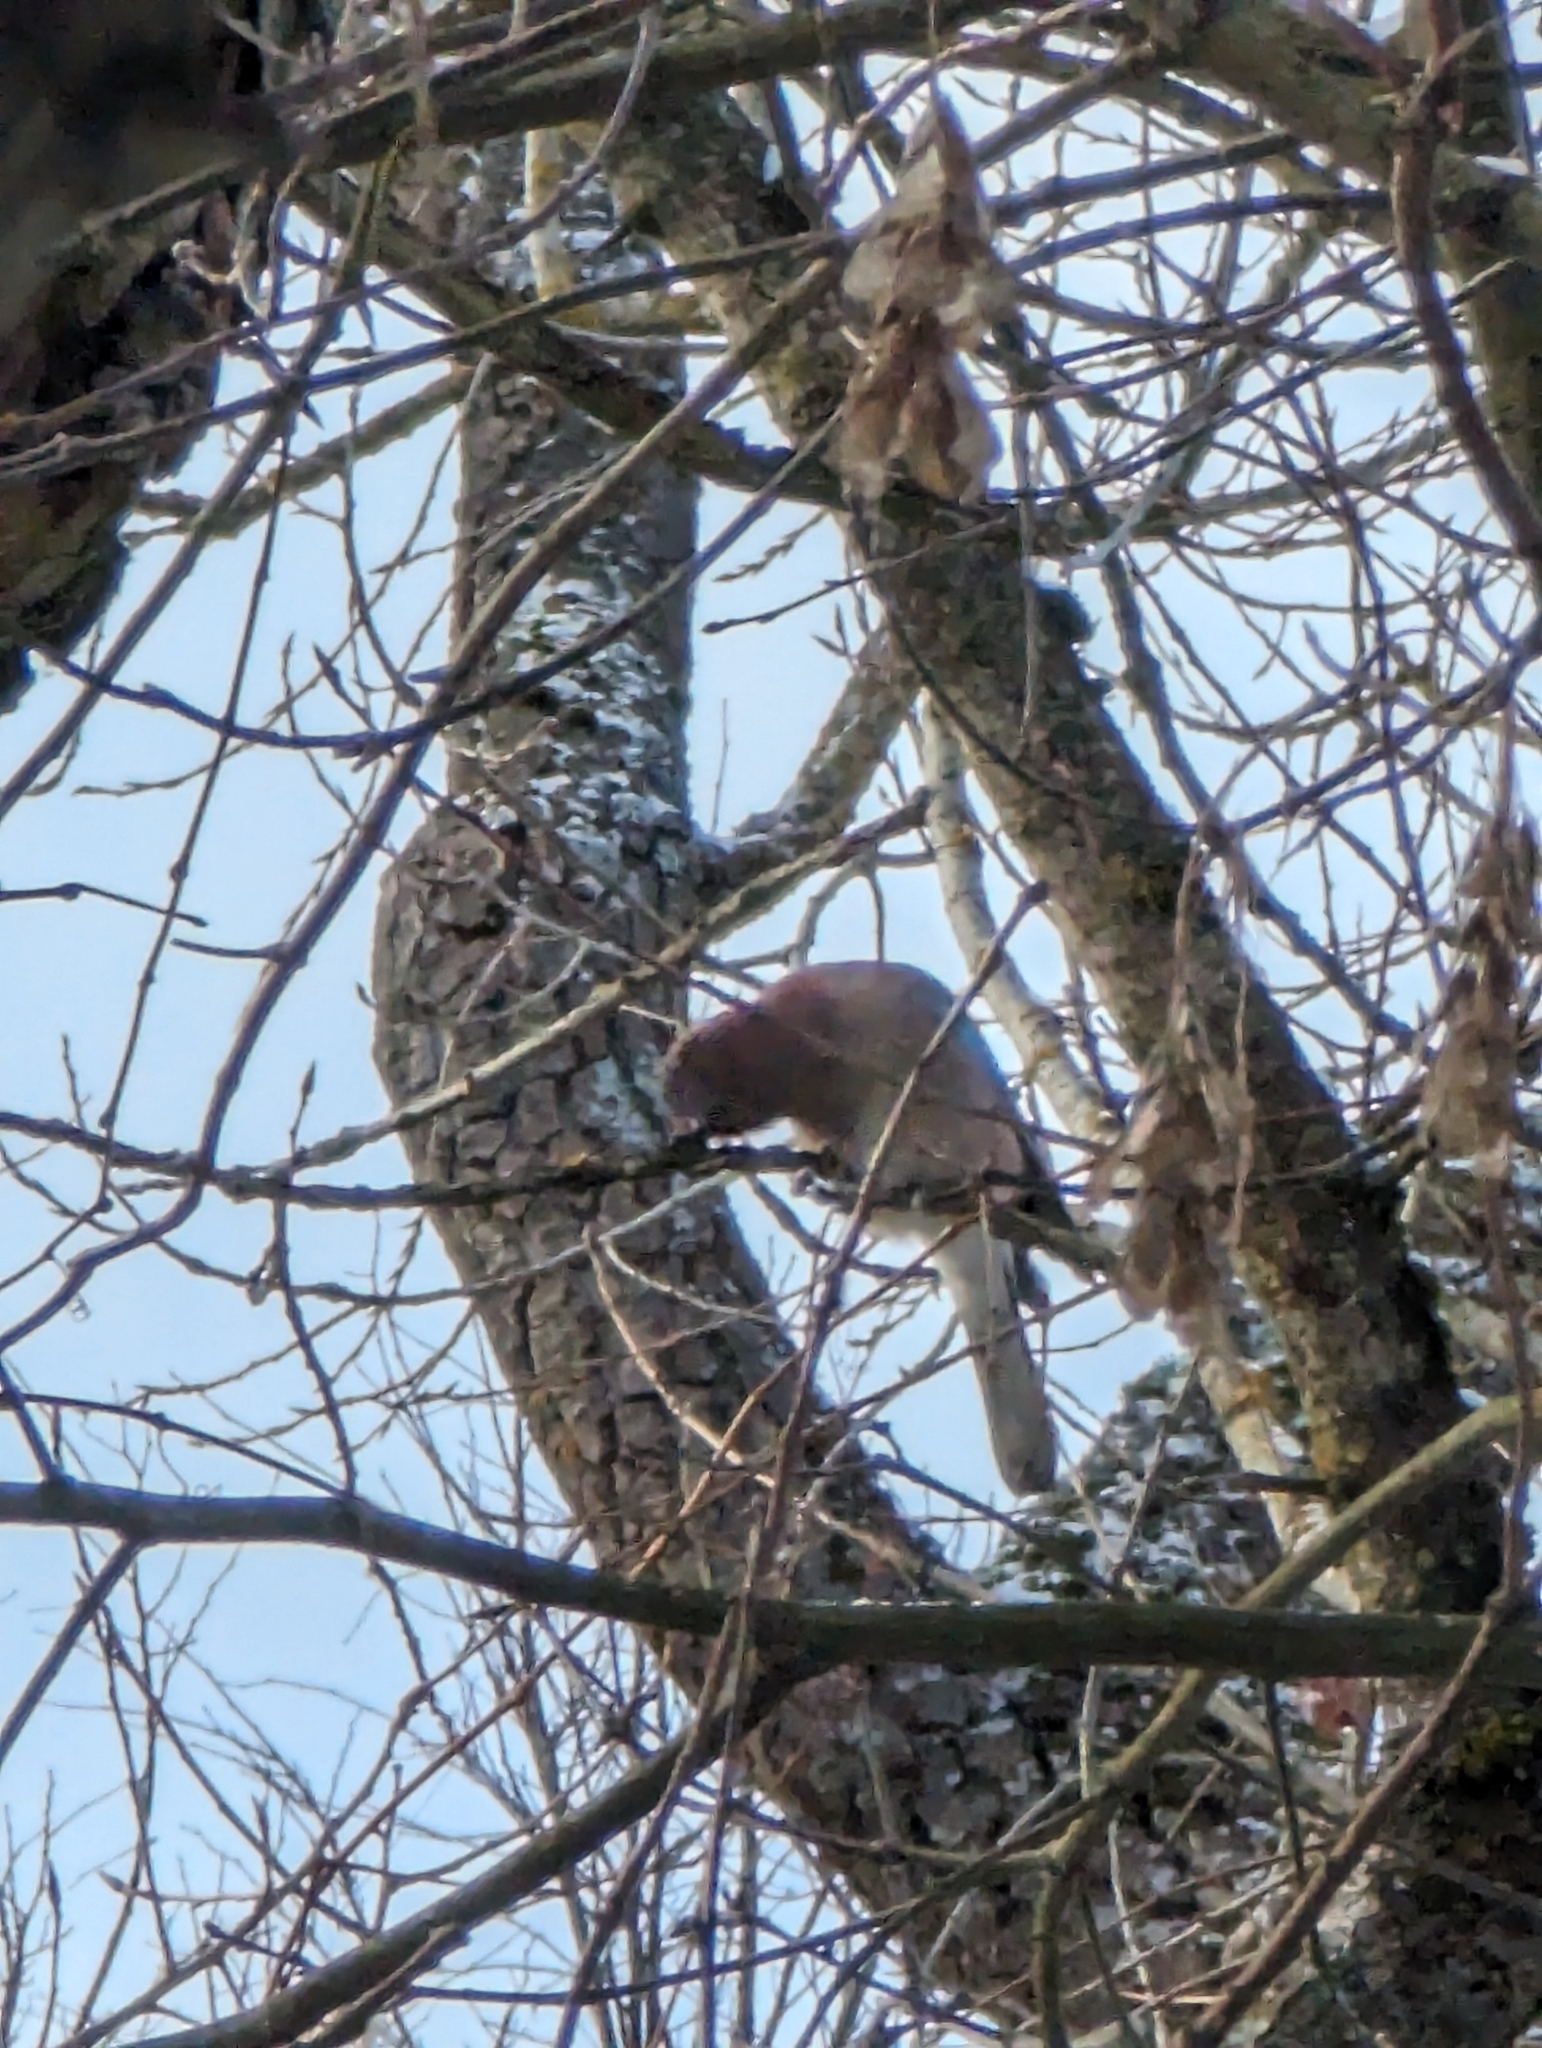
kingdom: Animalia
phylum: Chordata
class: Aves
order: Passeriformes
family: Corvidae
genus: Garrulus
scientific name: Garrulus glandarius
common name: Eurasian jay
